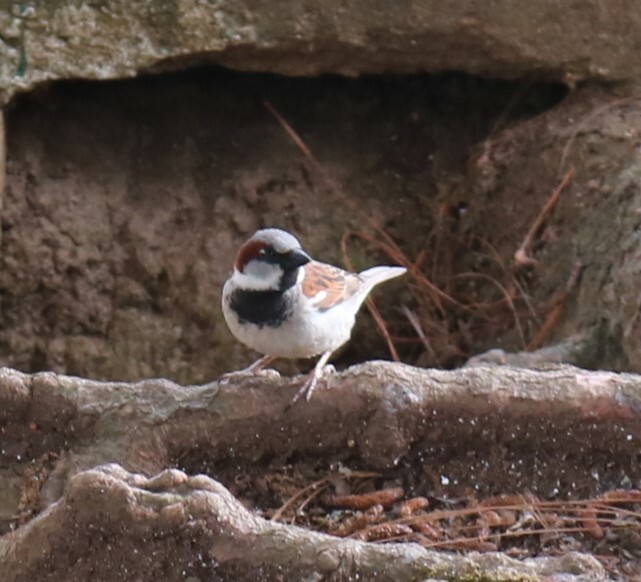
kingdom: Animalia
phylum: Chordata
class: Aves
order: Passeriformes
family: Passeridae
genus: Passer
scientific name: Passer domesticus
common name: House sparrow
